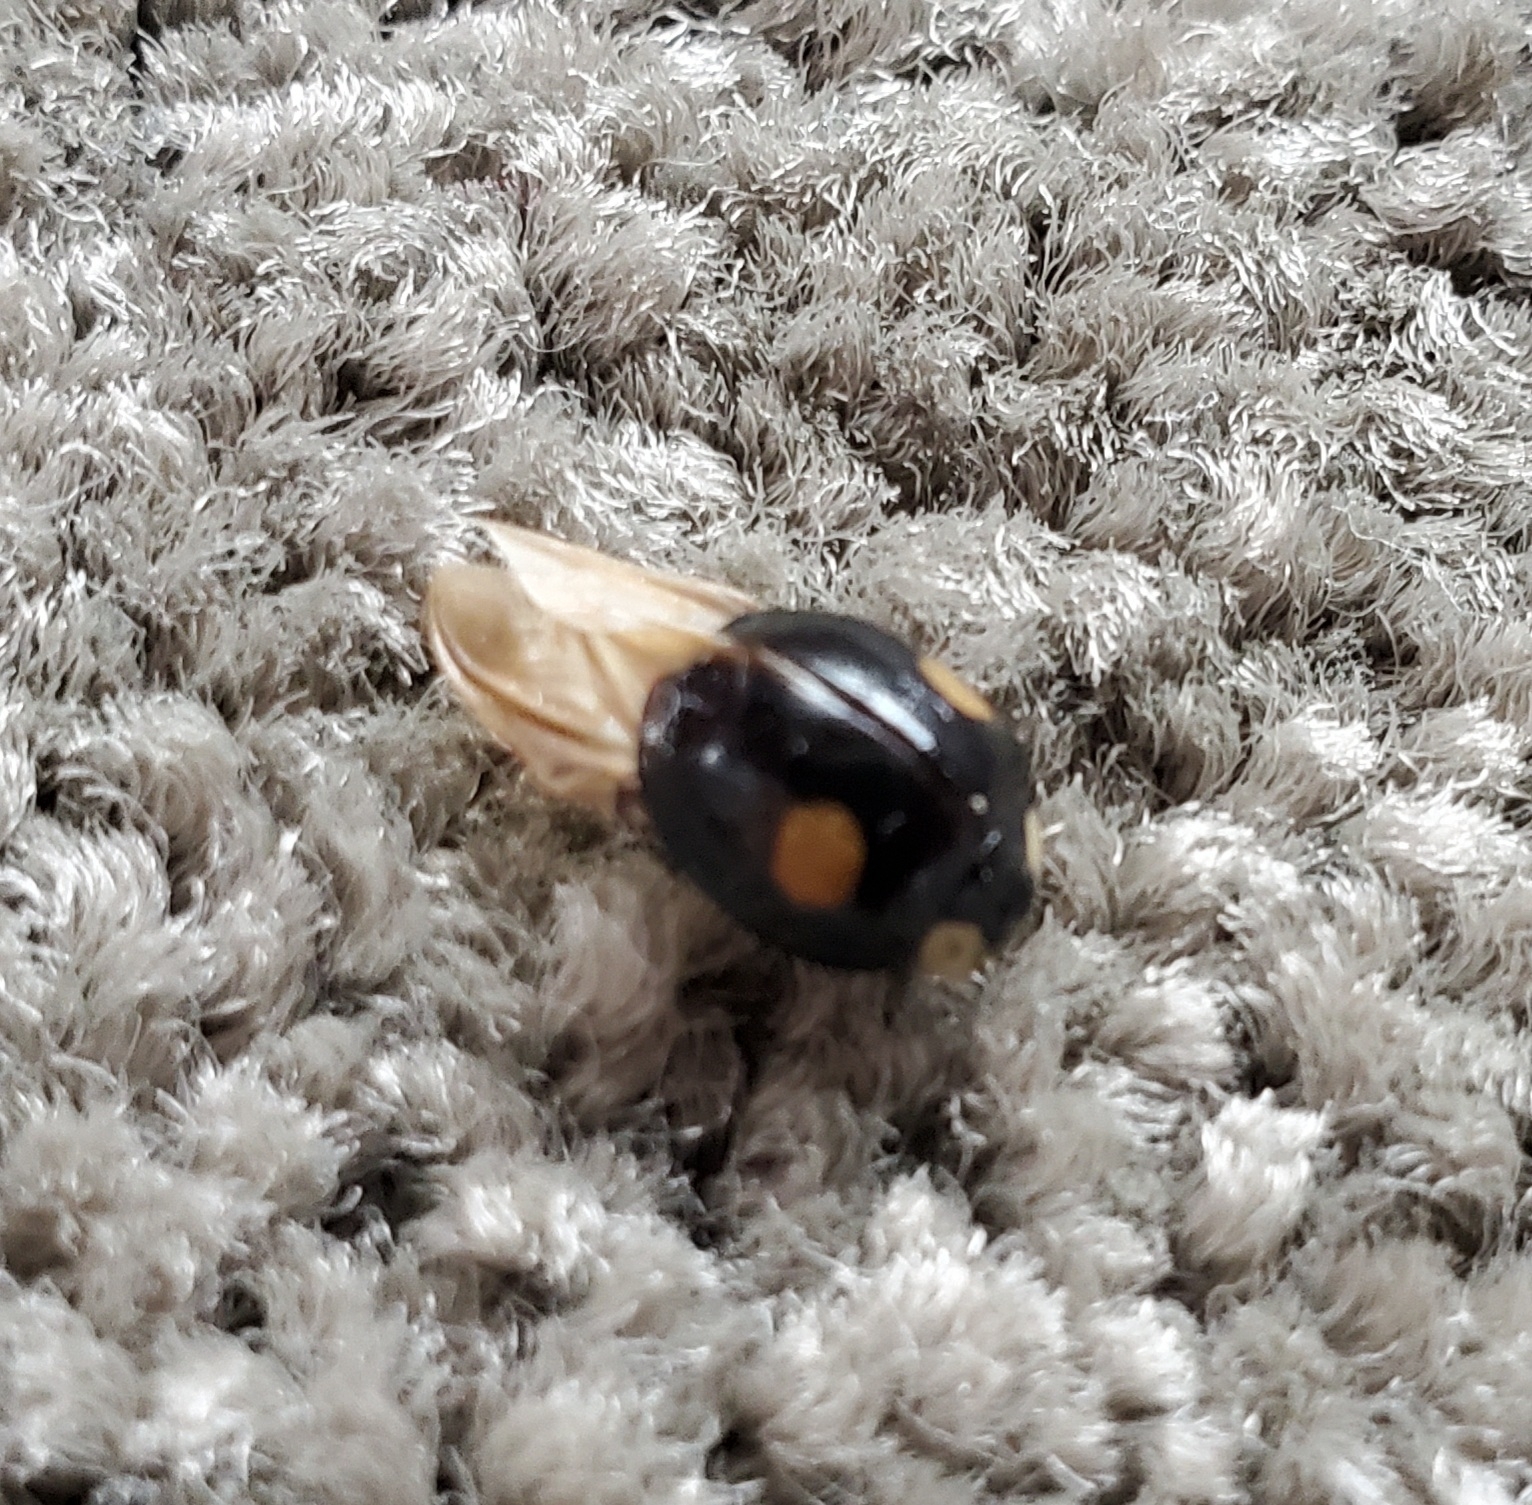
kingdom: Animalia
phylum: Arthropoda
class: Insecta
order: Coleoptera
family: Coccinellidae
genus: Harmonia
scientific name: Harmonia axyridis
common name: Harlequin ladybird
